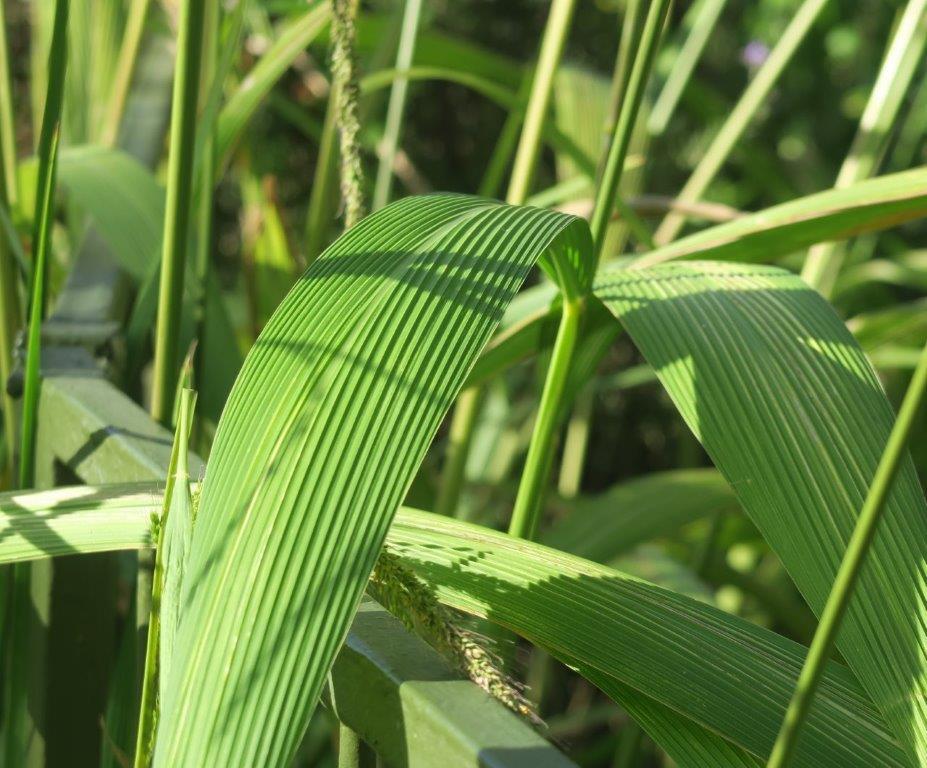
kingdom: Plantae
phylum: Tracheophyta
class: Liliopsida
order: Poales
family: Poaceae
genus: Setaria
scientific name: Setaria megaphylla
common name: Bigleaf bristlegrass
